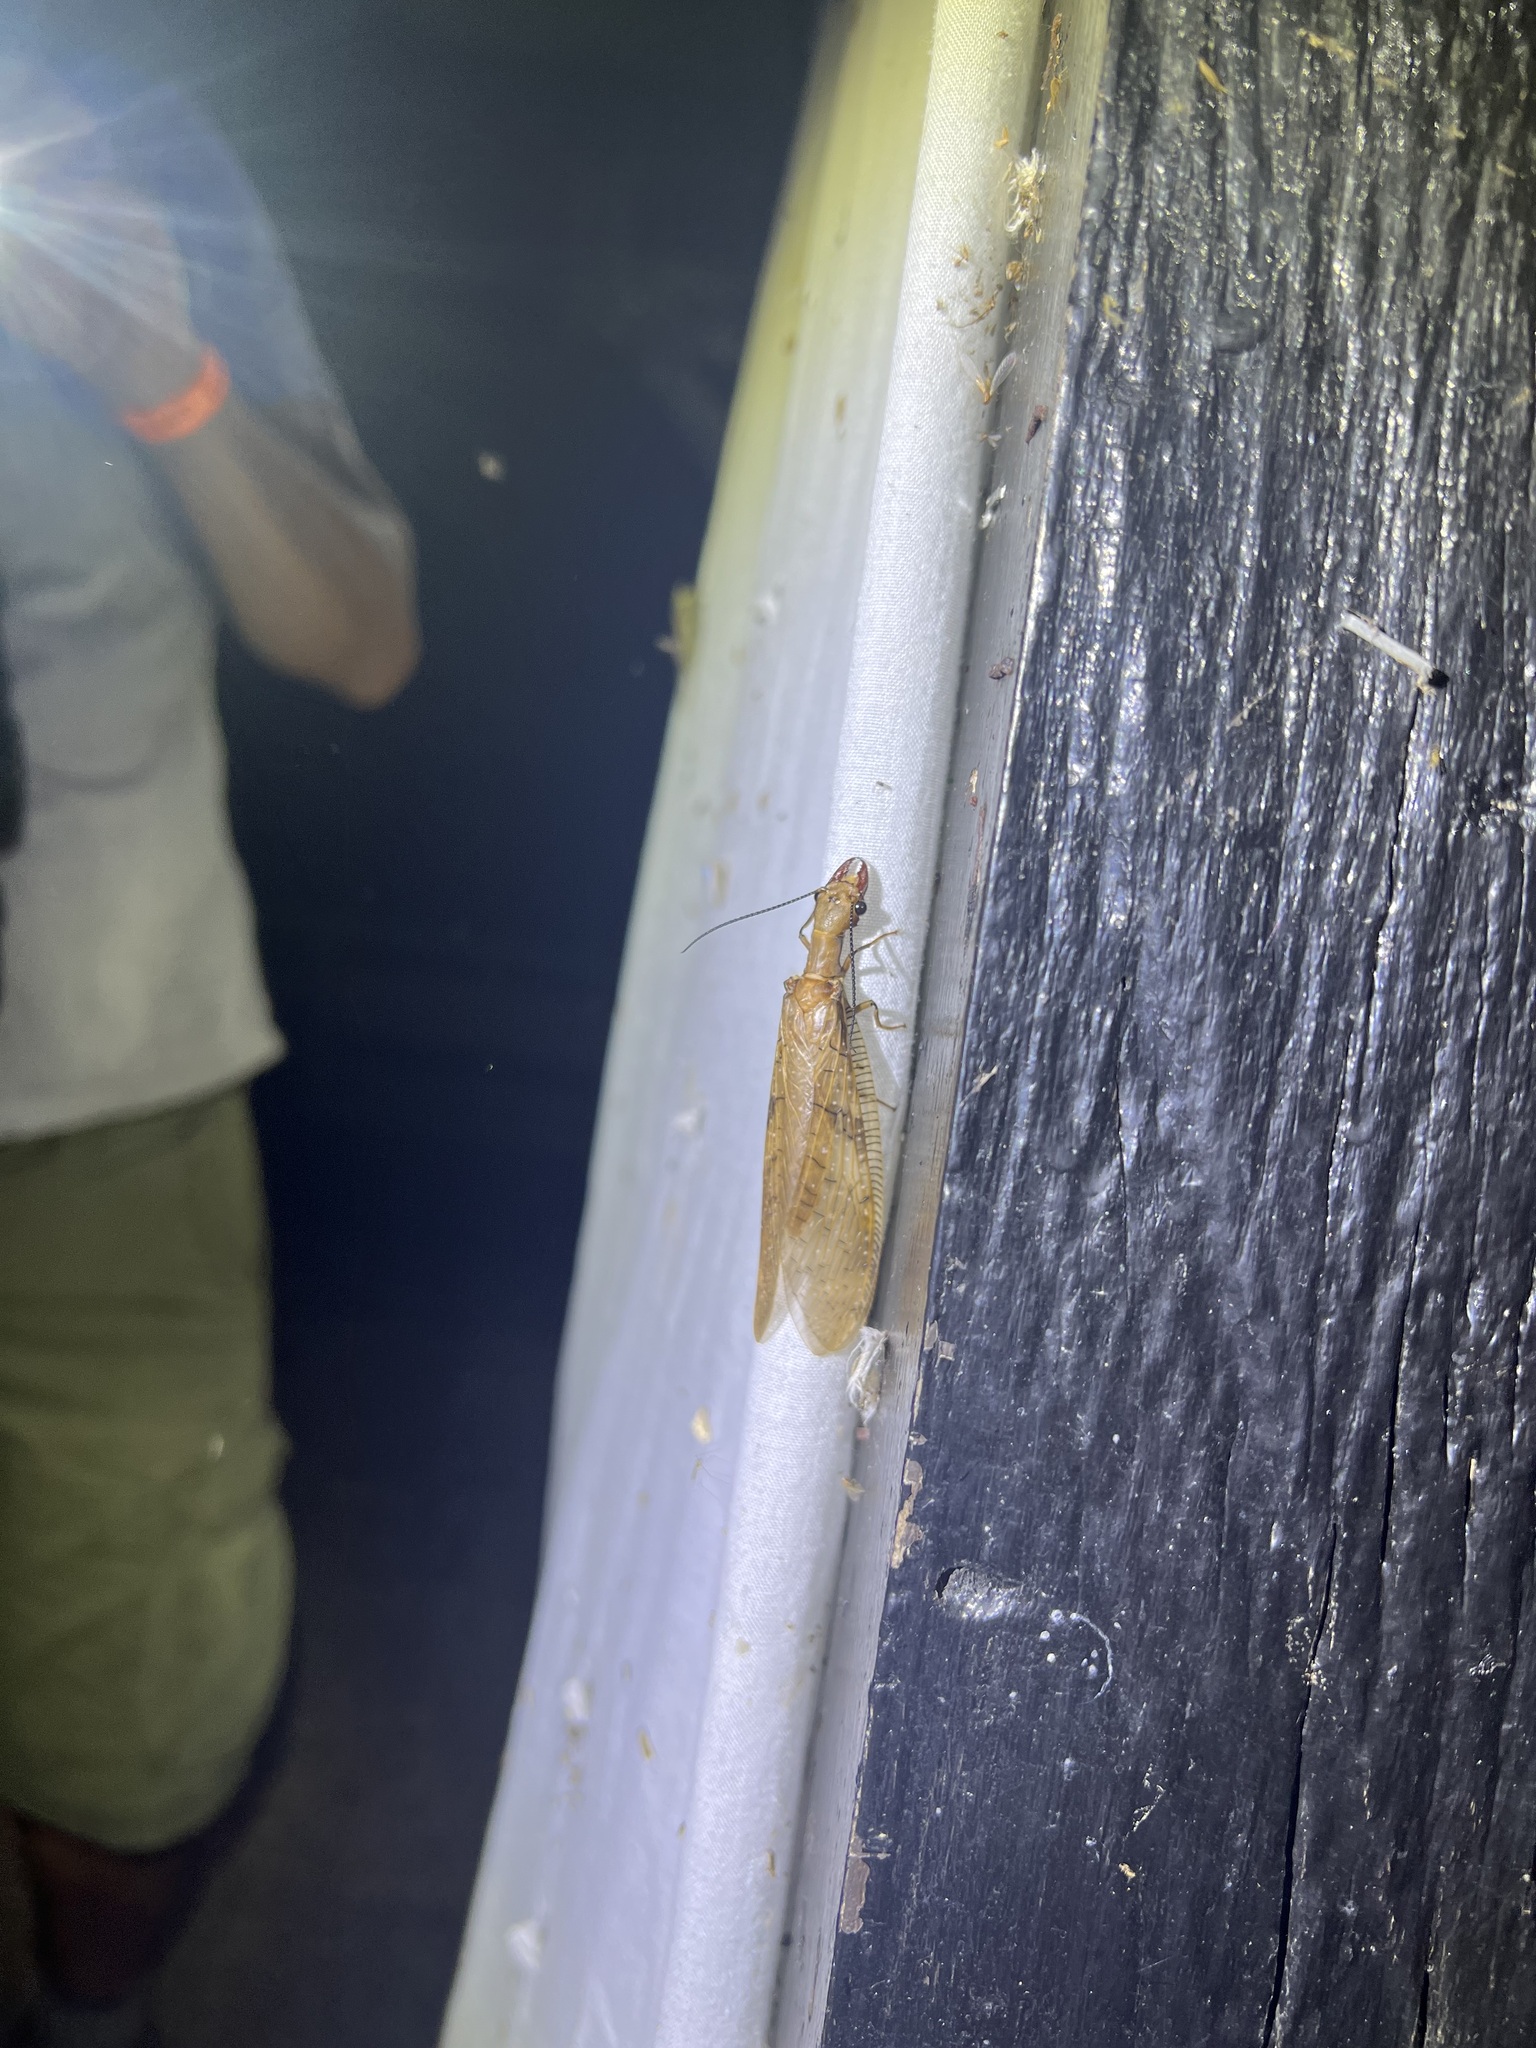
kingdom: Animalia
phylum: Arthropoda
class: Insecta
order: Megaloptera
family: Corydalidae
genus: Corydalus
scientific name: Corydalus flavicornis
